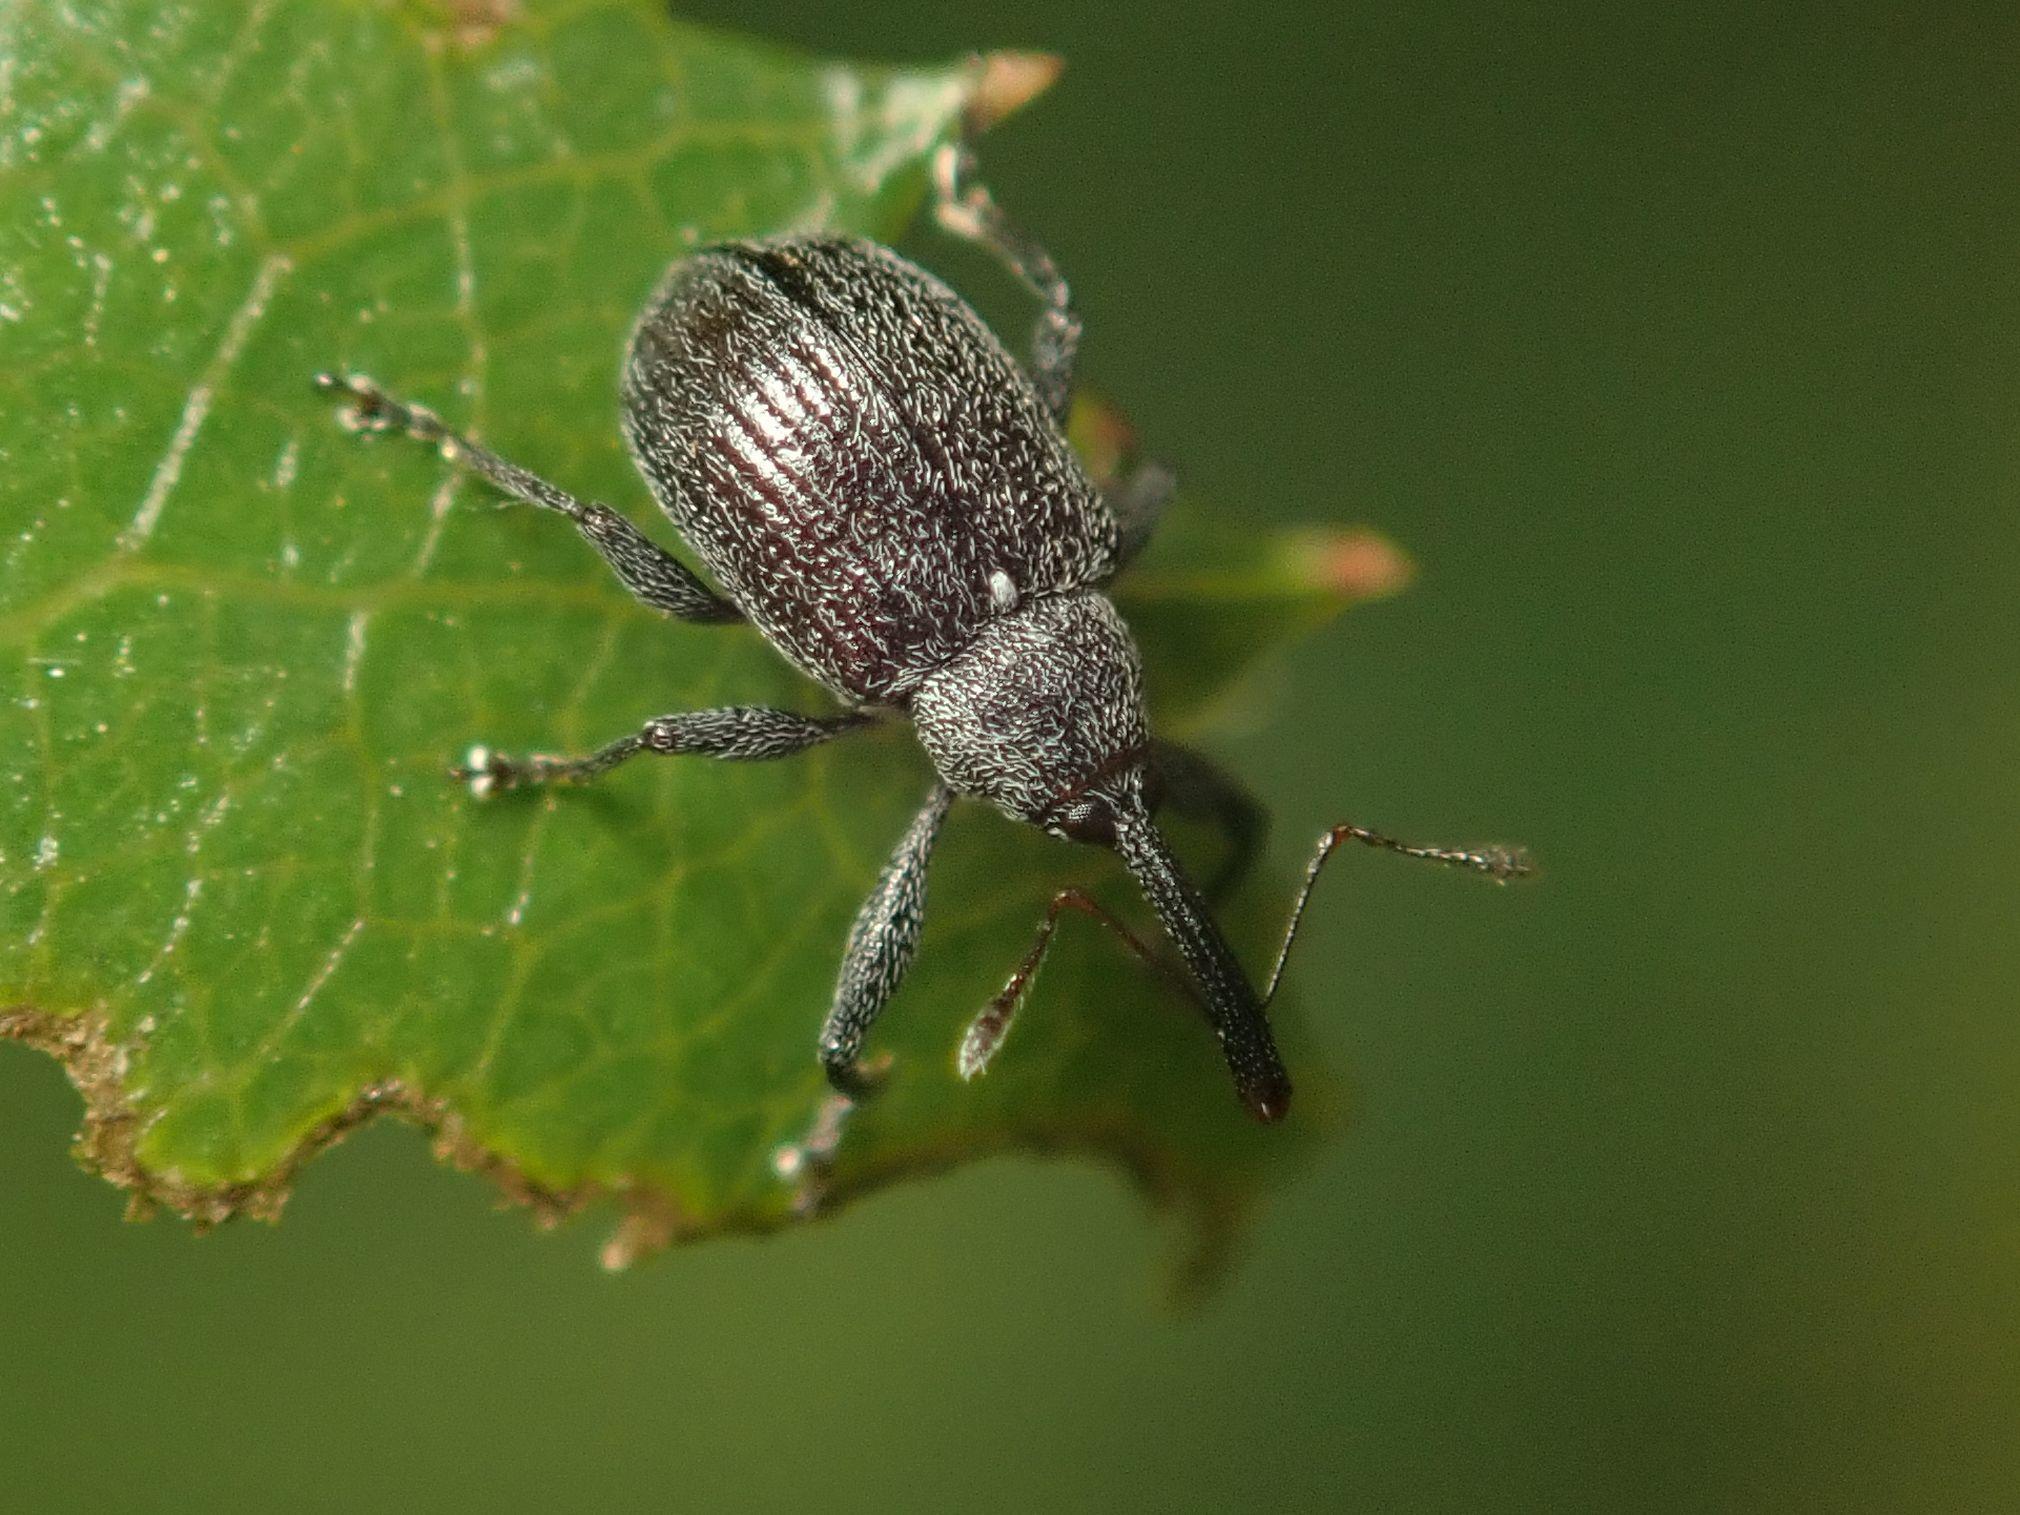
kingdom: Animalia
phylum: Arthropoda
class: Insecta
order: Coleoptera
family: Curculionidae
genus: Anthonomus
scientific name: Anthonomus rubi
